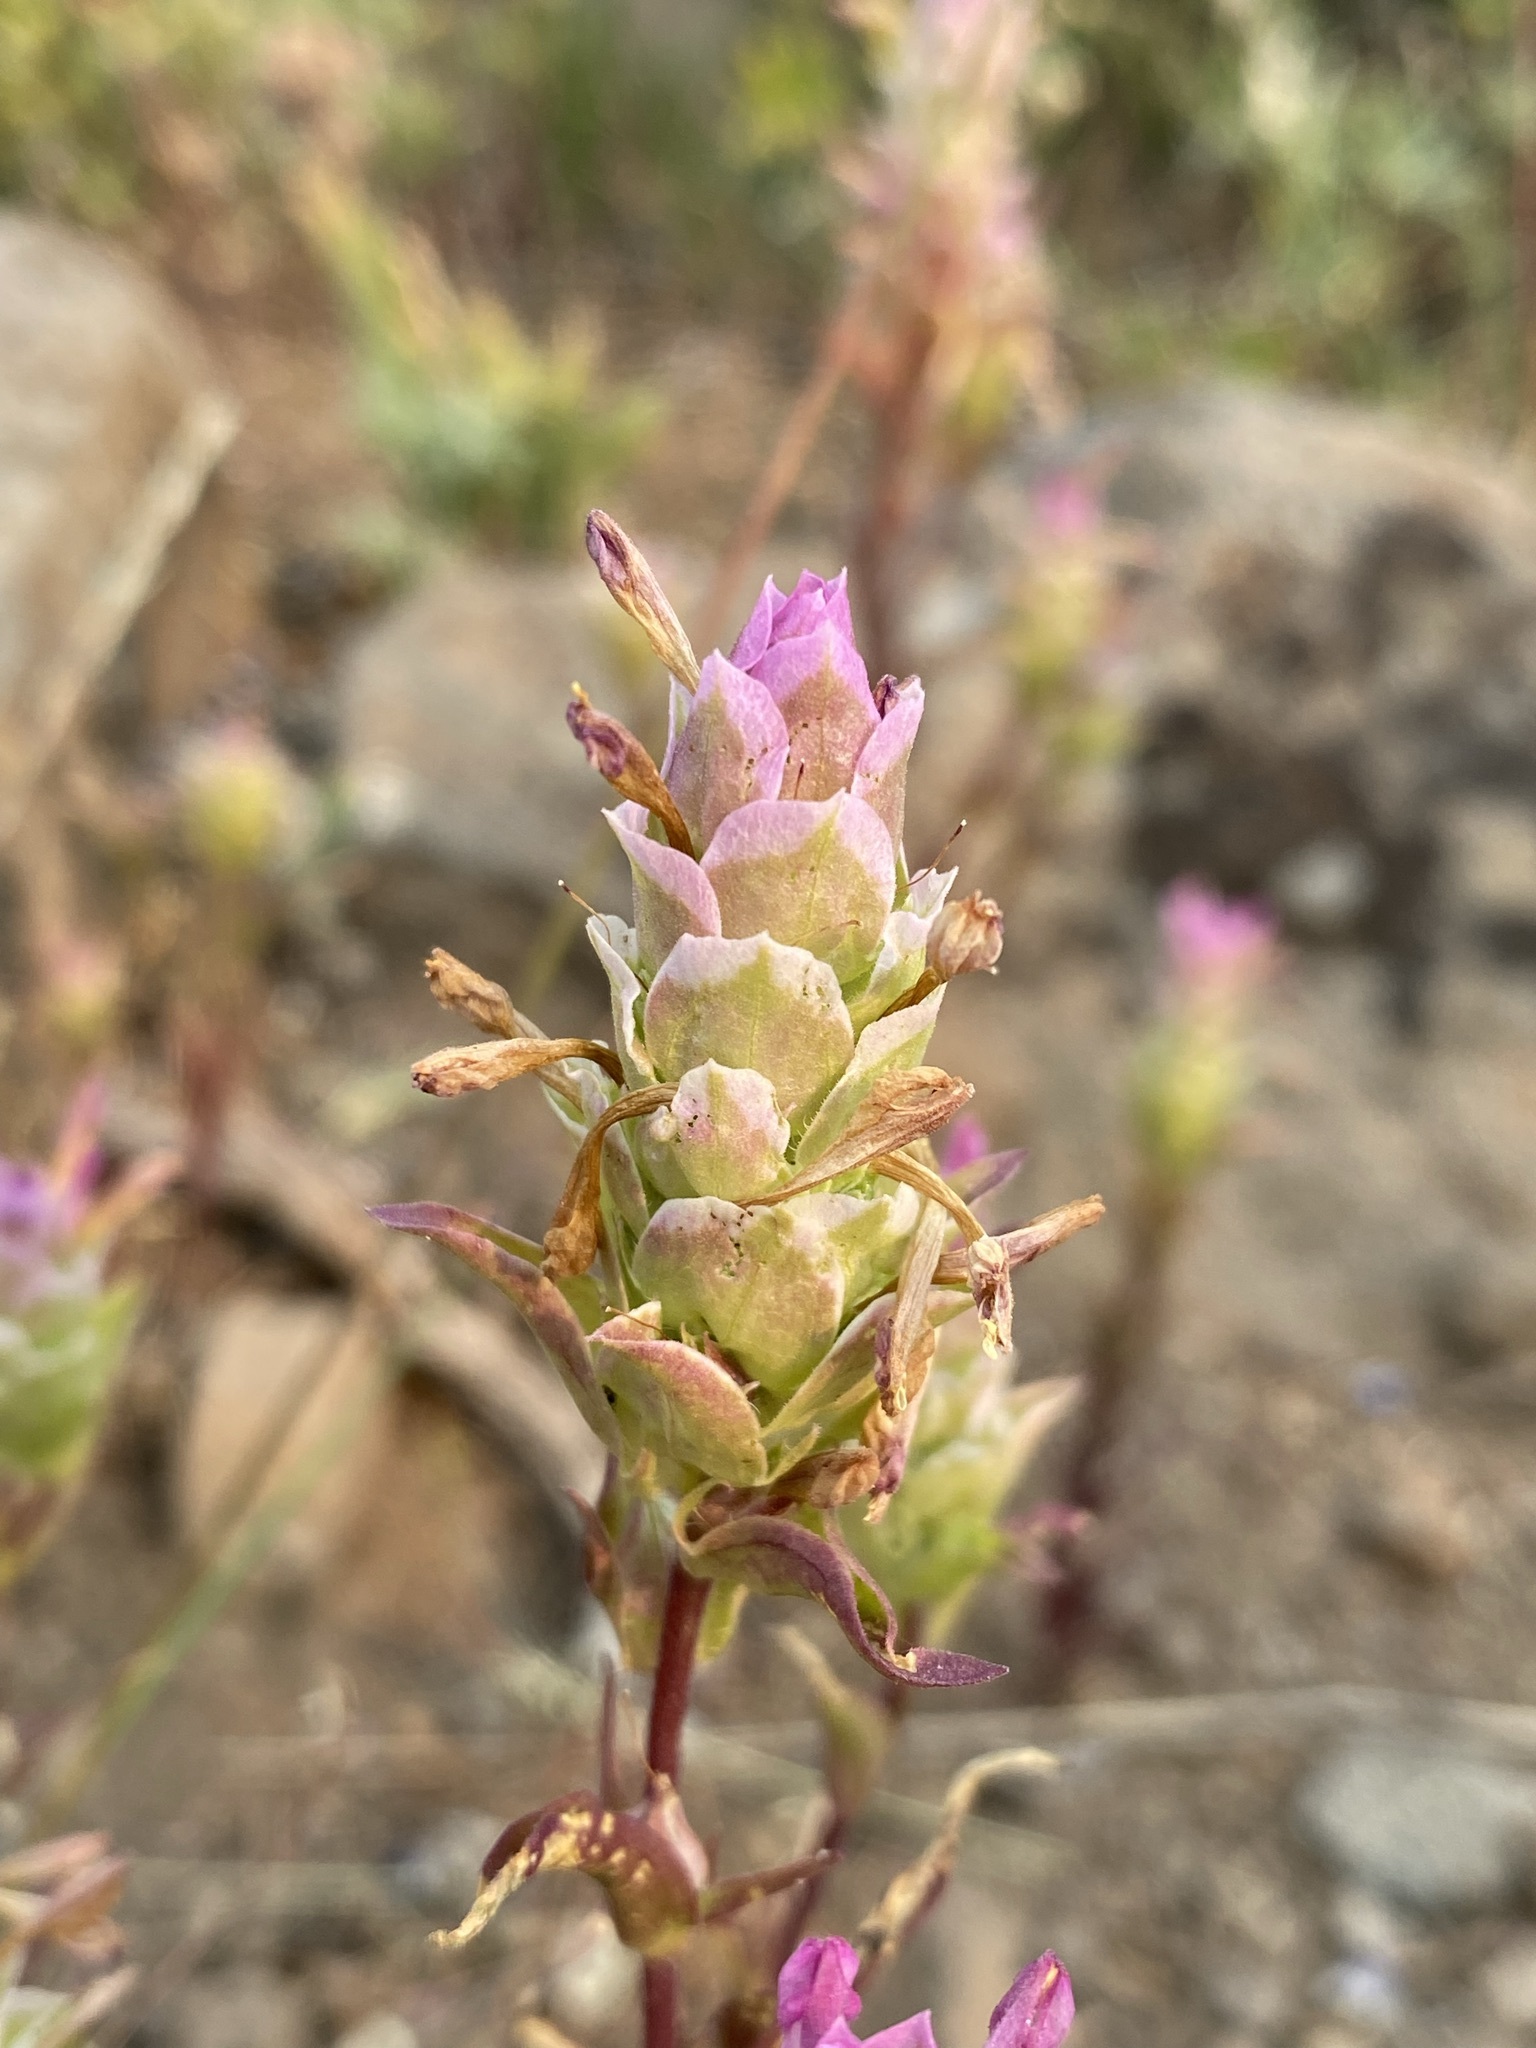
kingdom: Plantae
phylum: Tracheophyta
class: Magnoliopsida
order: Lamiales
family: Orobanchaceae
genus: Orthocarpus
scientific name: Orthocarpus cuspidatus
